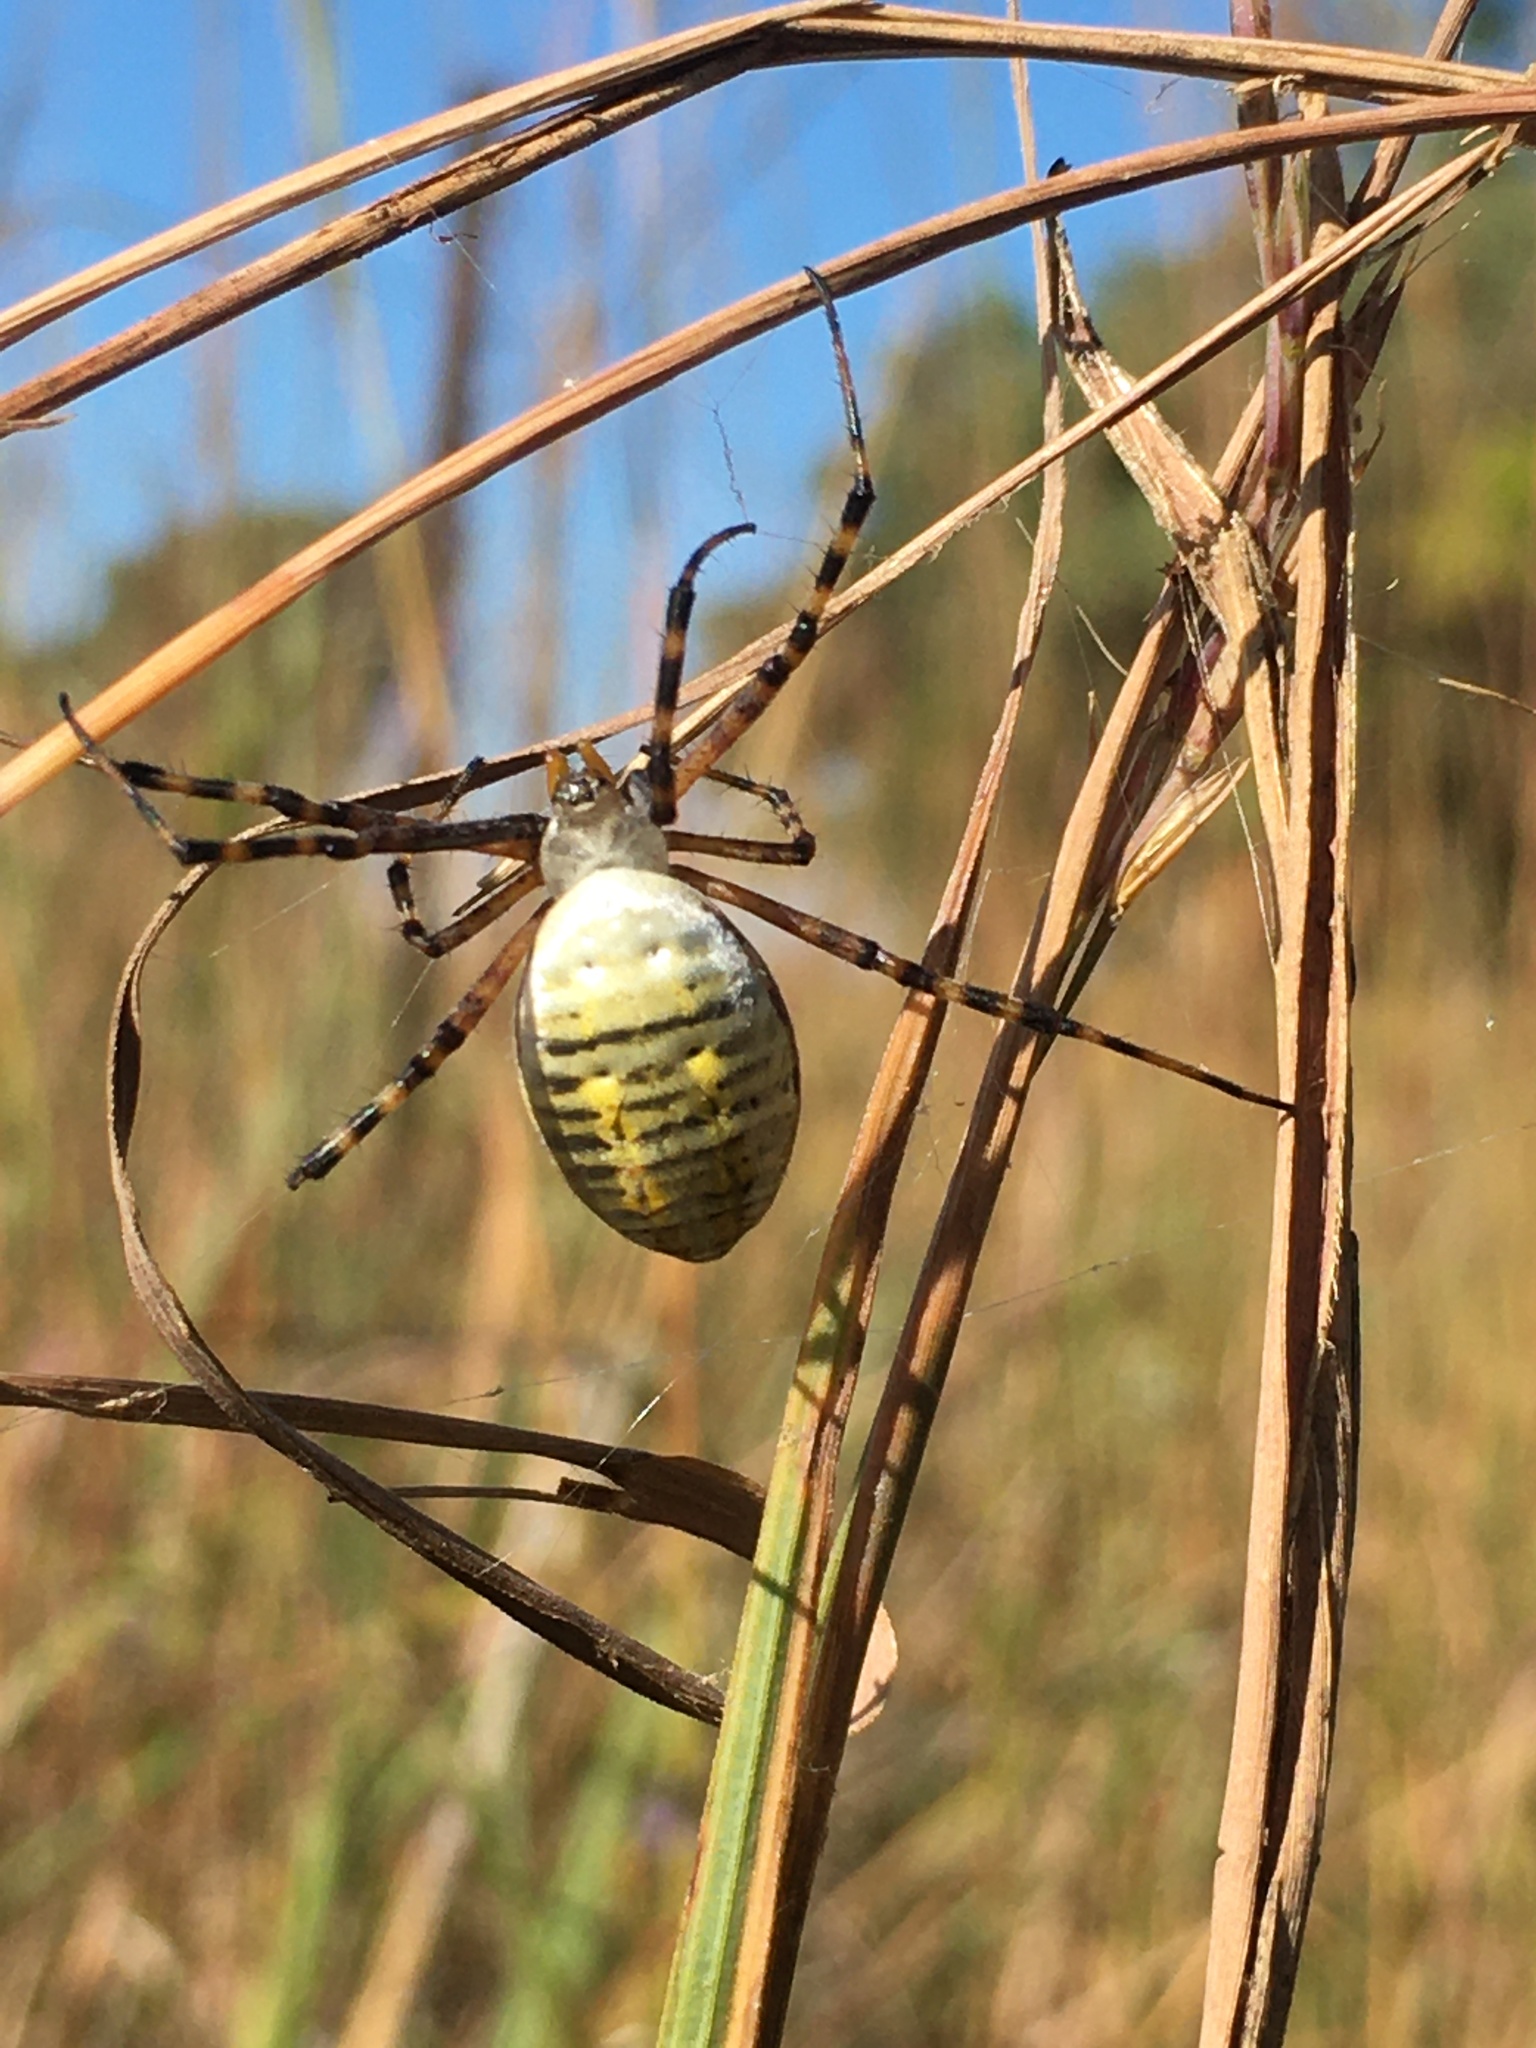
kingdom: Animalia
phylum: Arthropoda
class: Arachnida
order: Araneae
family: Araneidae
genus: Argiope
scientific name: Argiope trifasciata
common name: Banded garden spider
